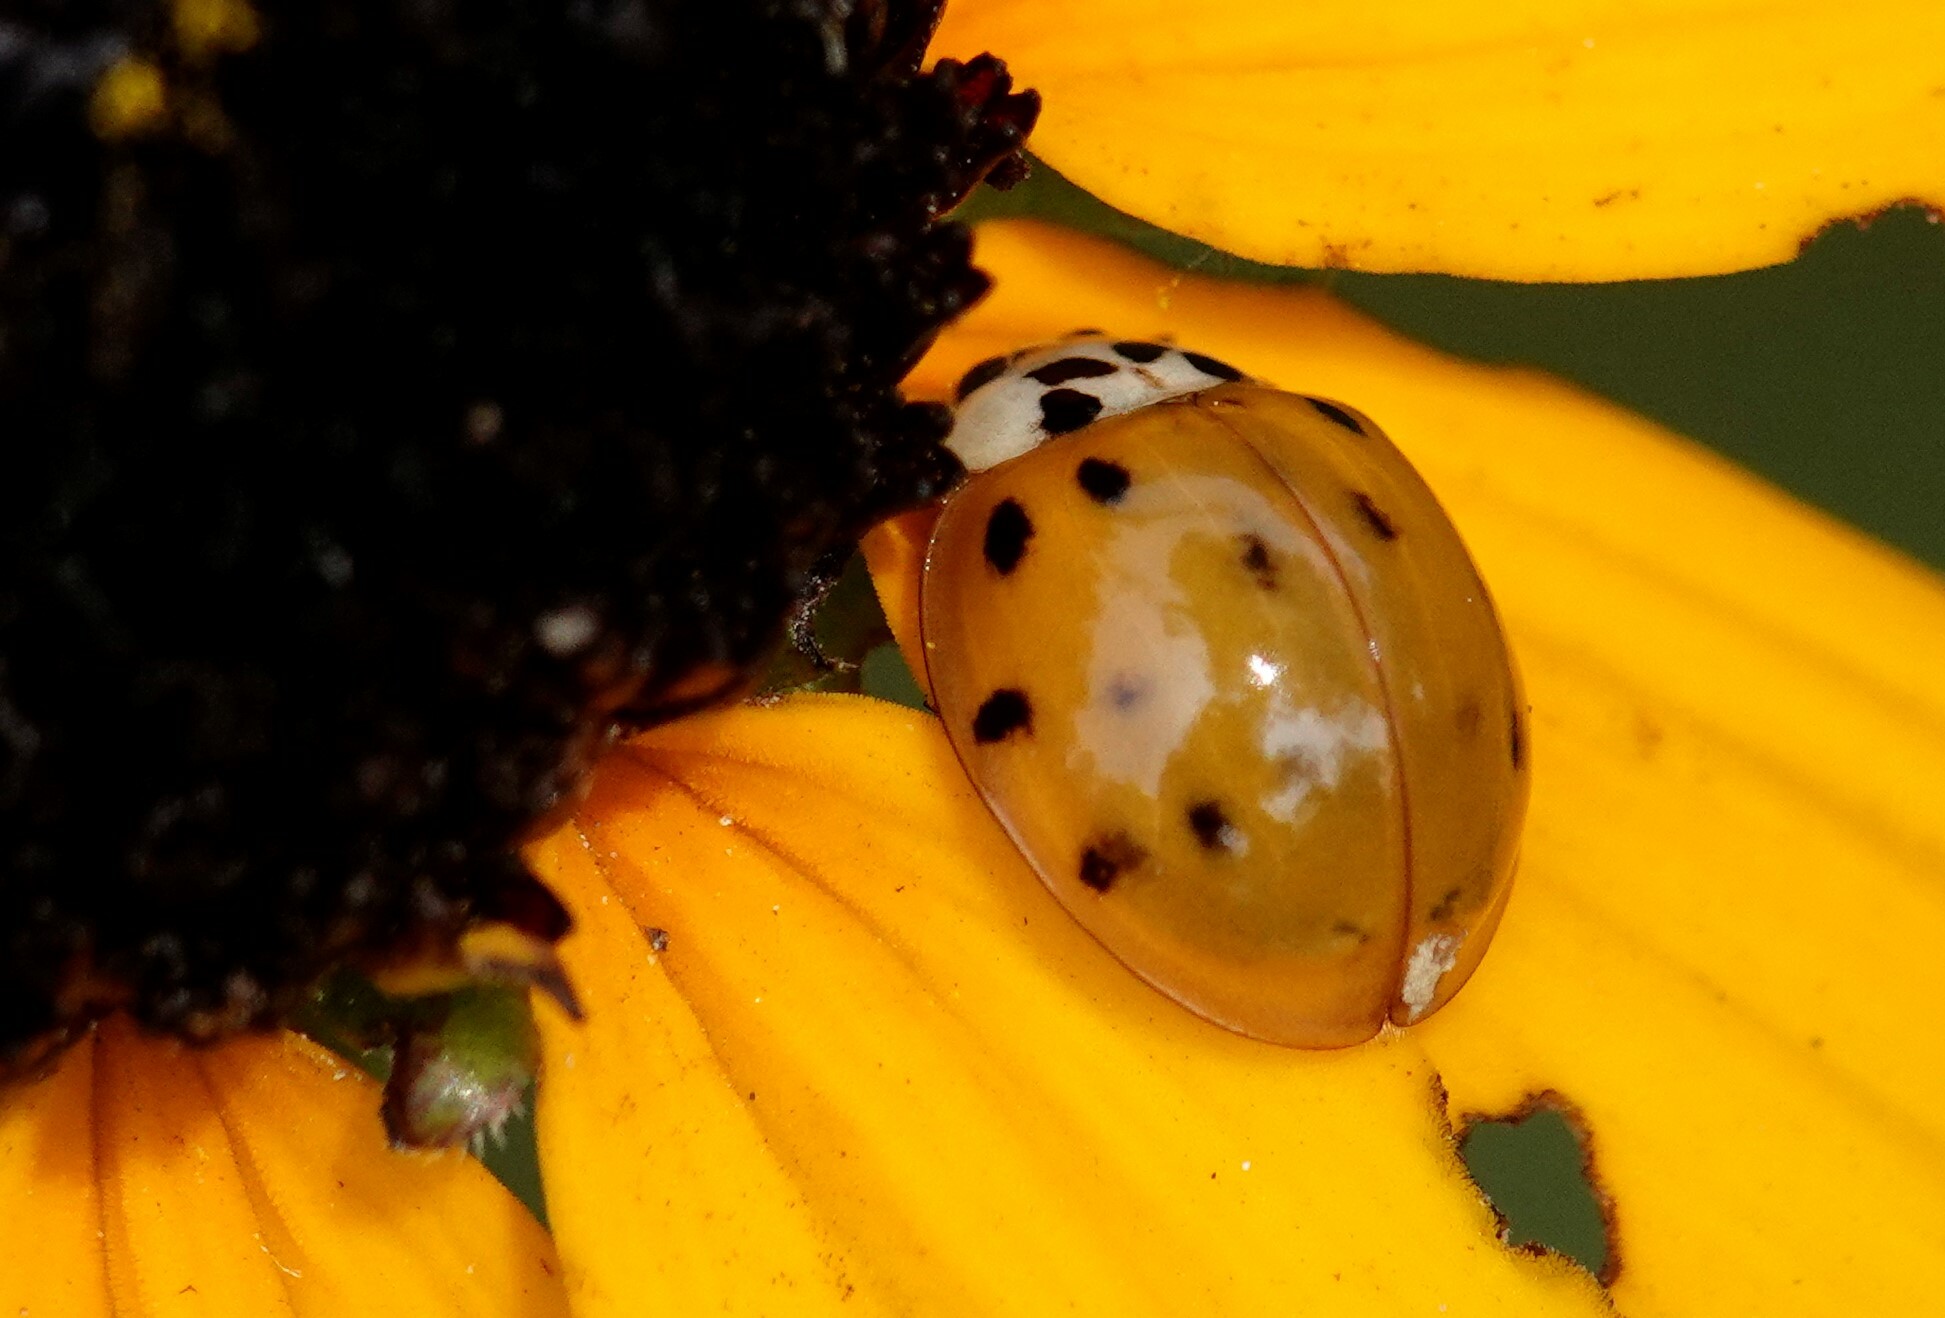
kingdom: Animalia
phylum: Arthropoda
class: Insecta
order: Coleoptera
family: Coccinellidae
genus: Harmonia
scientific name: Harmonia axyridis
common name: Harlequin ladybird
